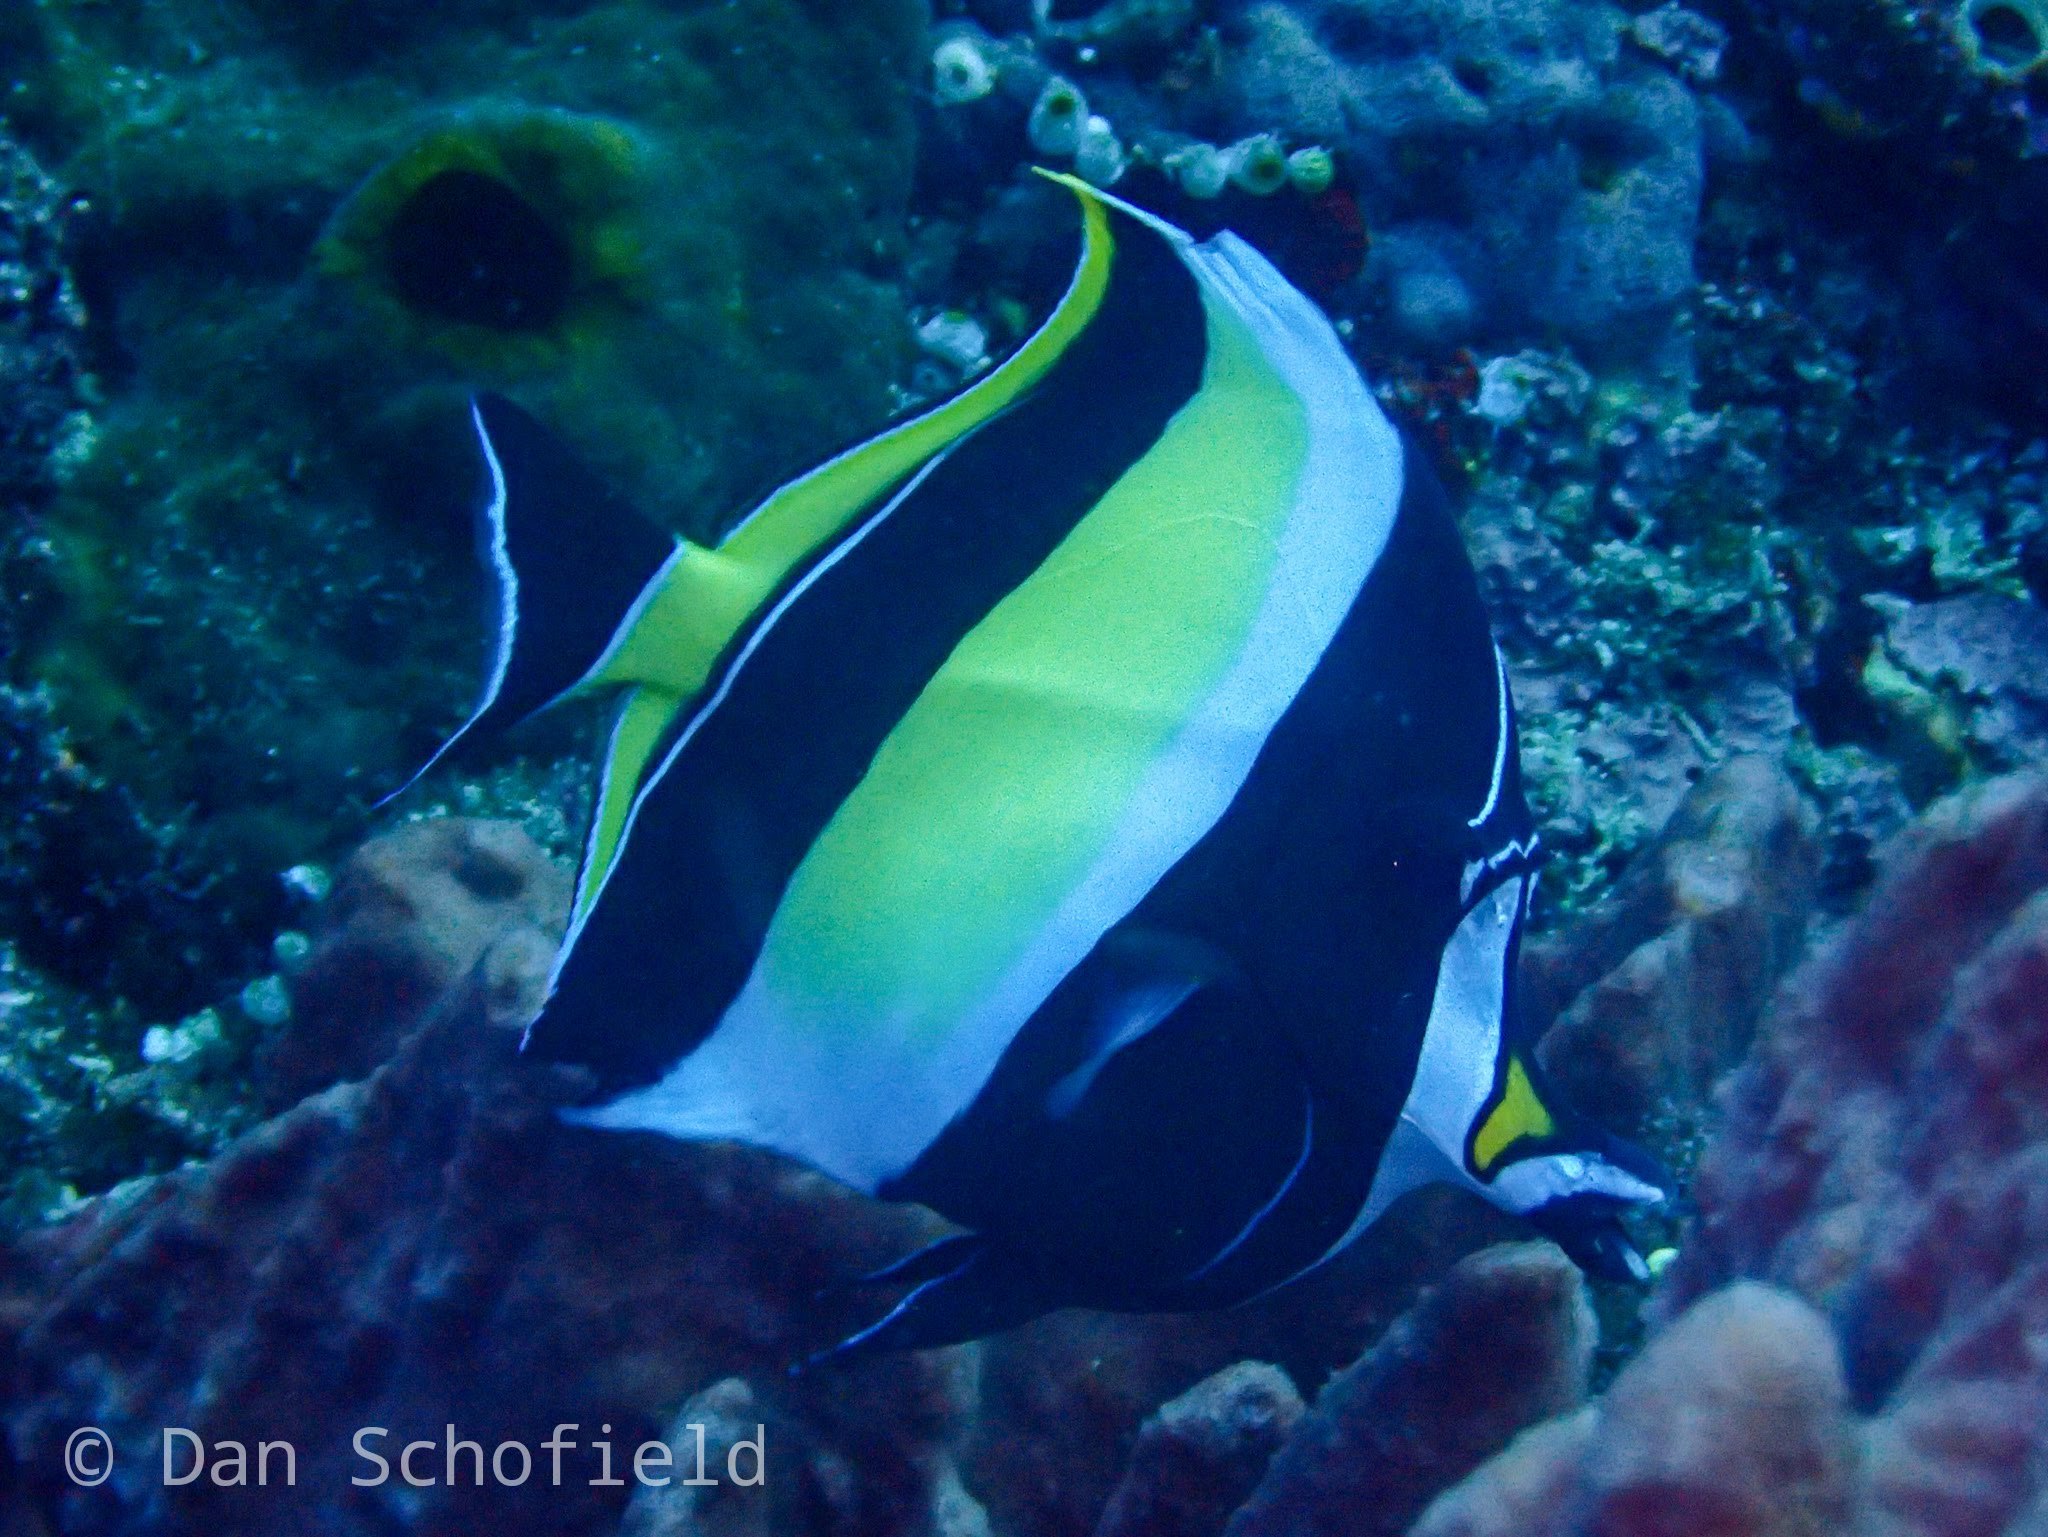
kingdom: Animalia
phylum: Chordata
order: Perciformes
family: Zanclidae
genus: Zanclus
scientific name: Zanclus cornutus
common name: Moorish idol
